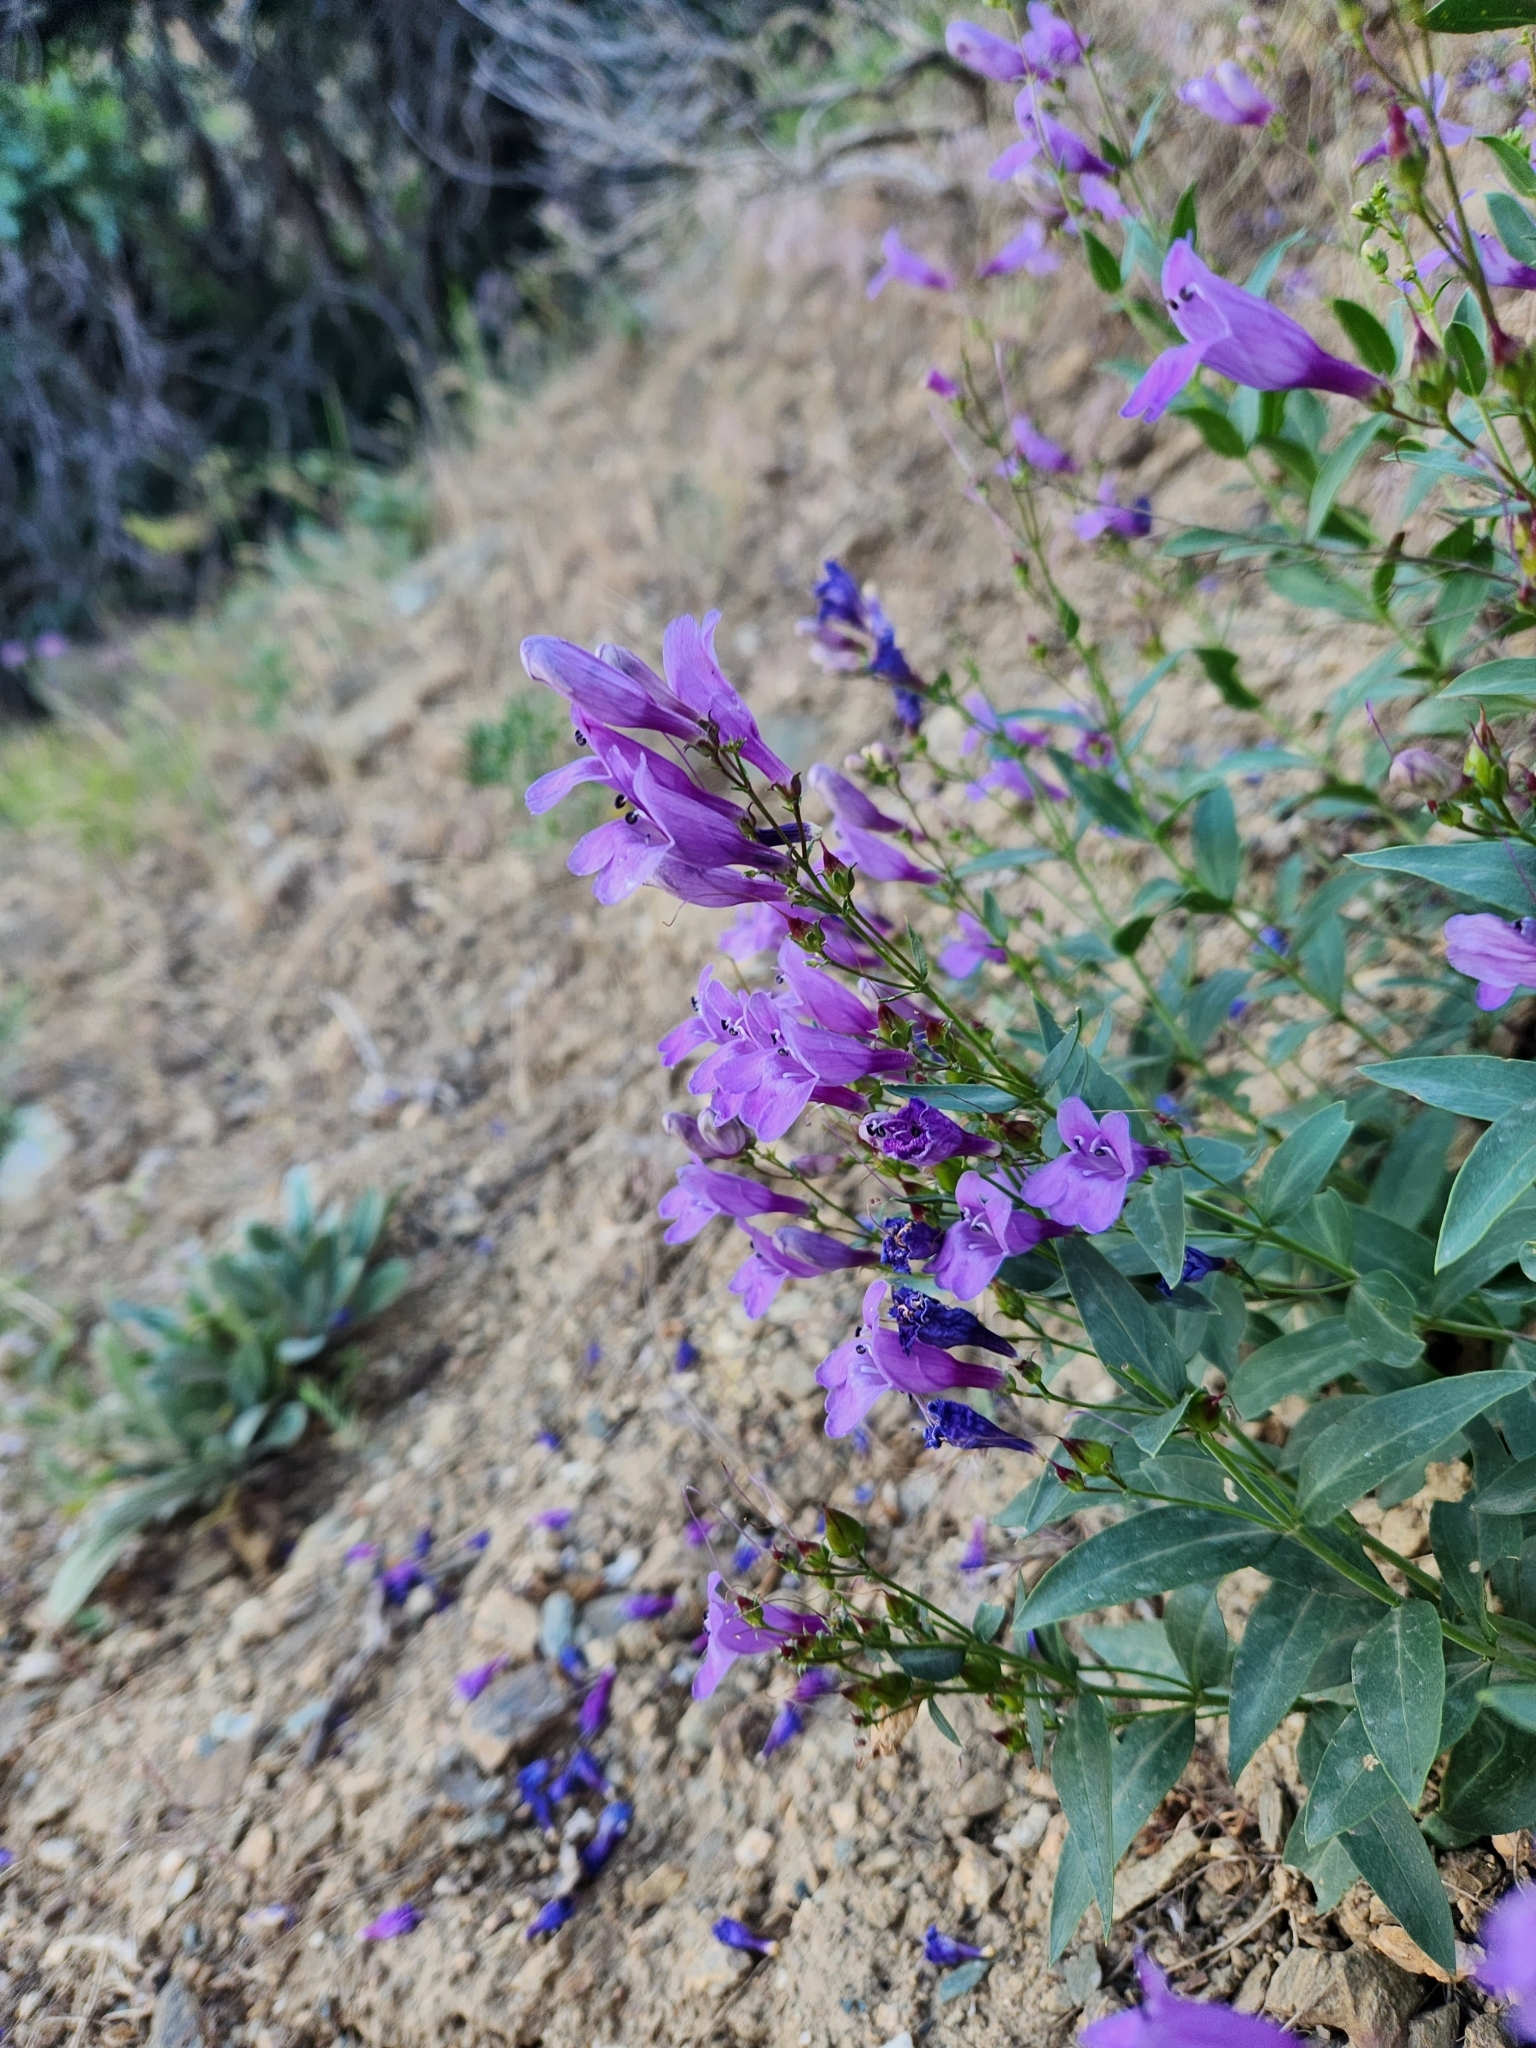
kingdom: Plantae
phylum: Tracheophyta
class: Magnoliopsida
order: Lamiales
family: Plantaginaceae
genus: Penstemon
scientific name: Penstemon platyphyllus
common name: Broadleaf penstemon
